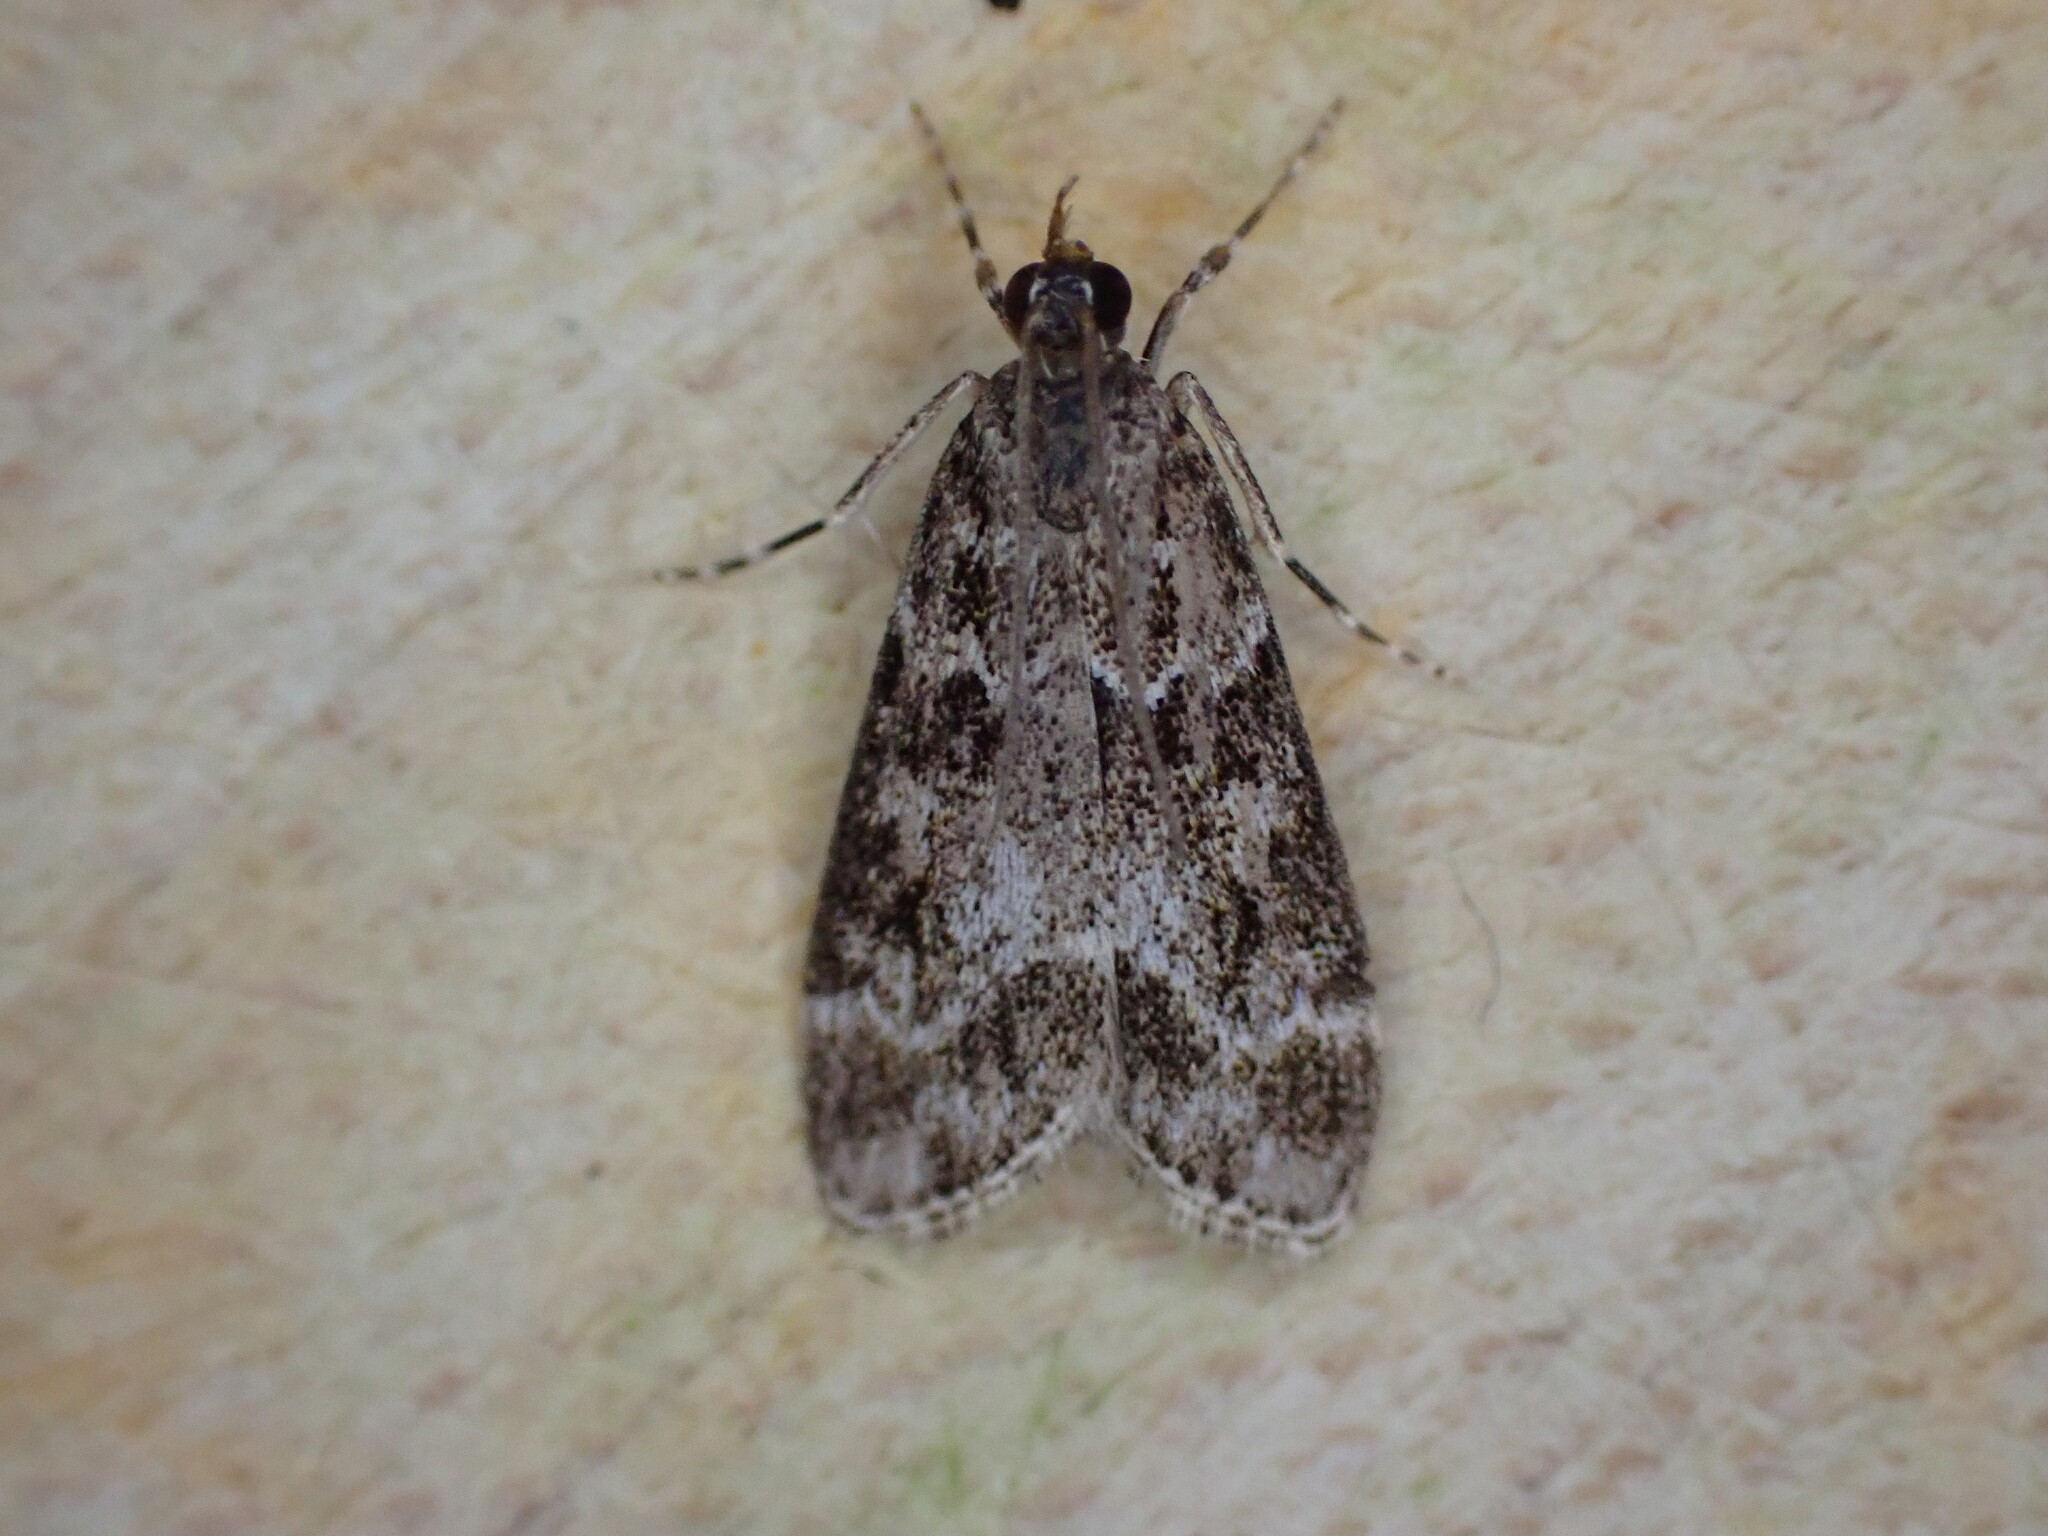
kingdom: Animalia
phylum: Arthropoda
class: Insecta
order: Lepidoptera
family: Crambidae
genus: Eudonia
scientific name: Eudonia mercurella
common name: Small grey
